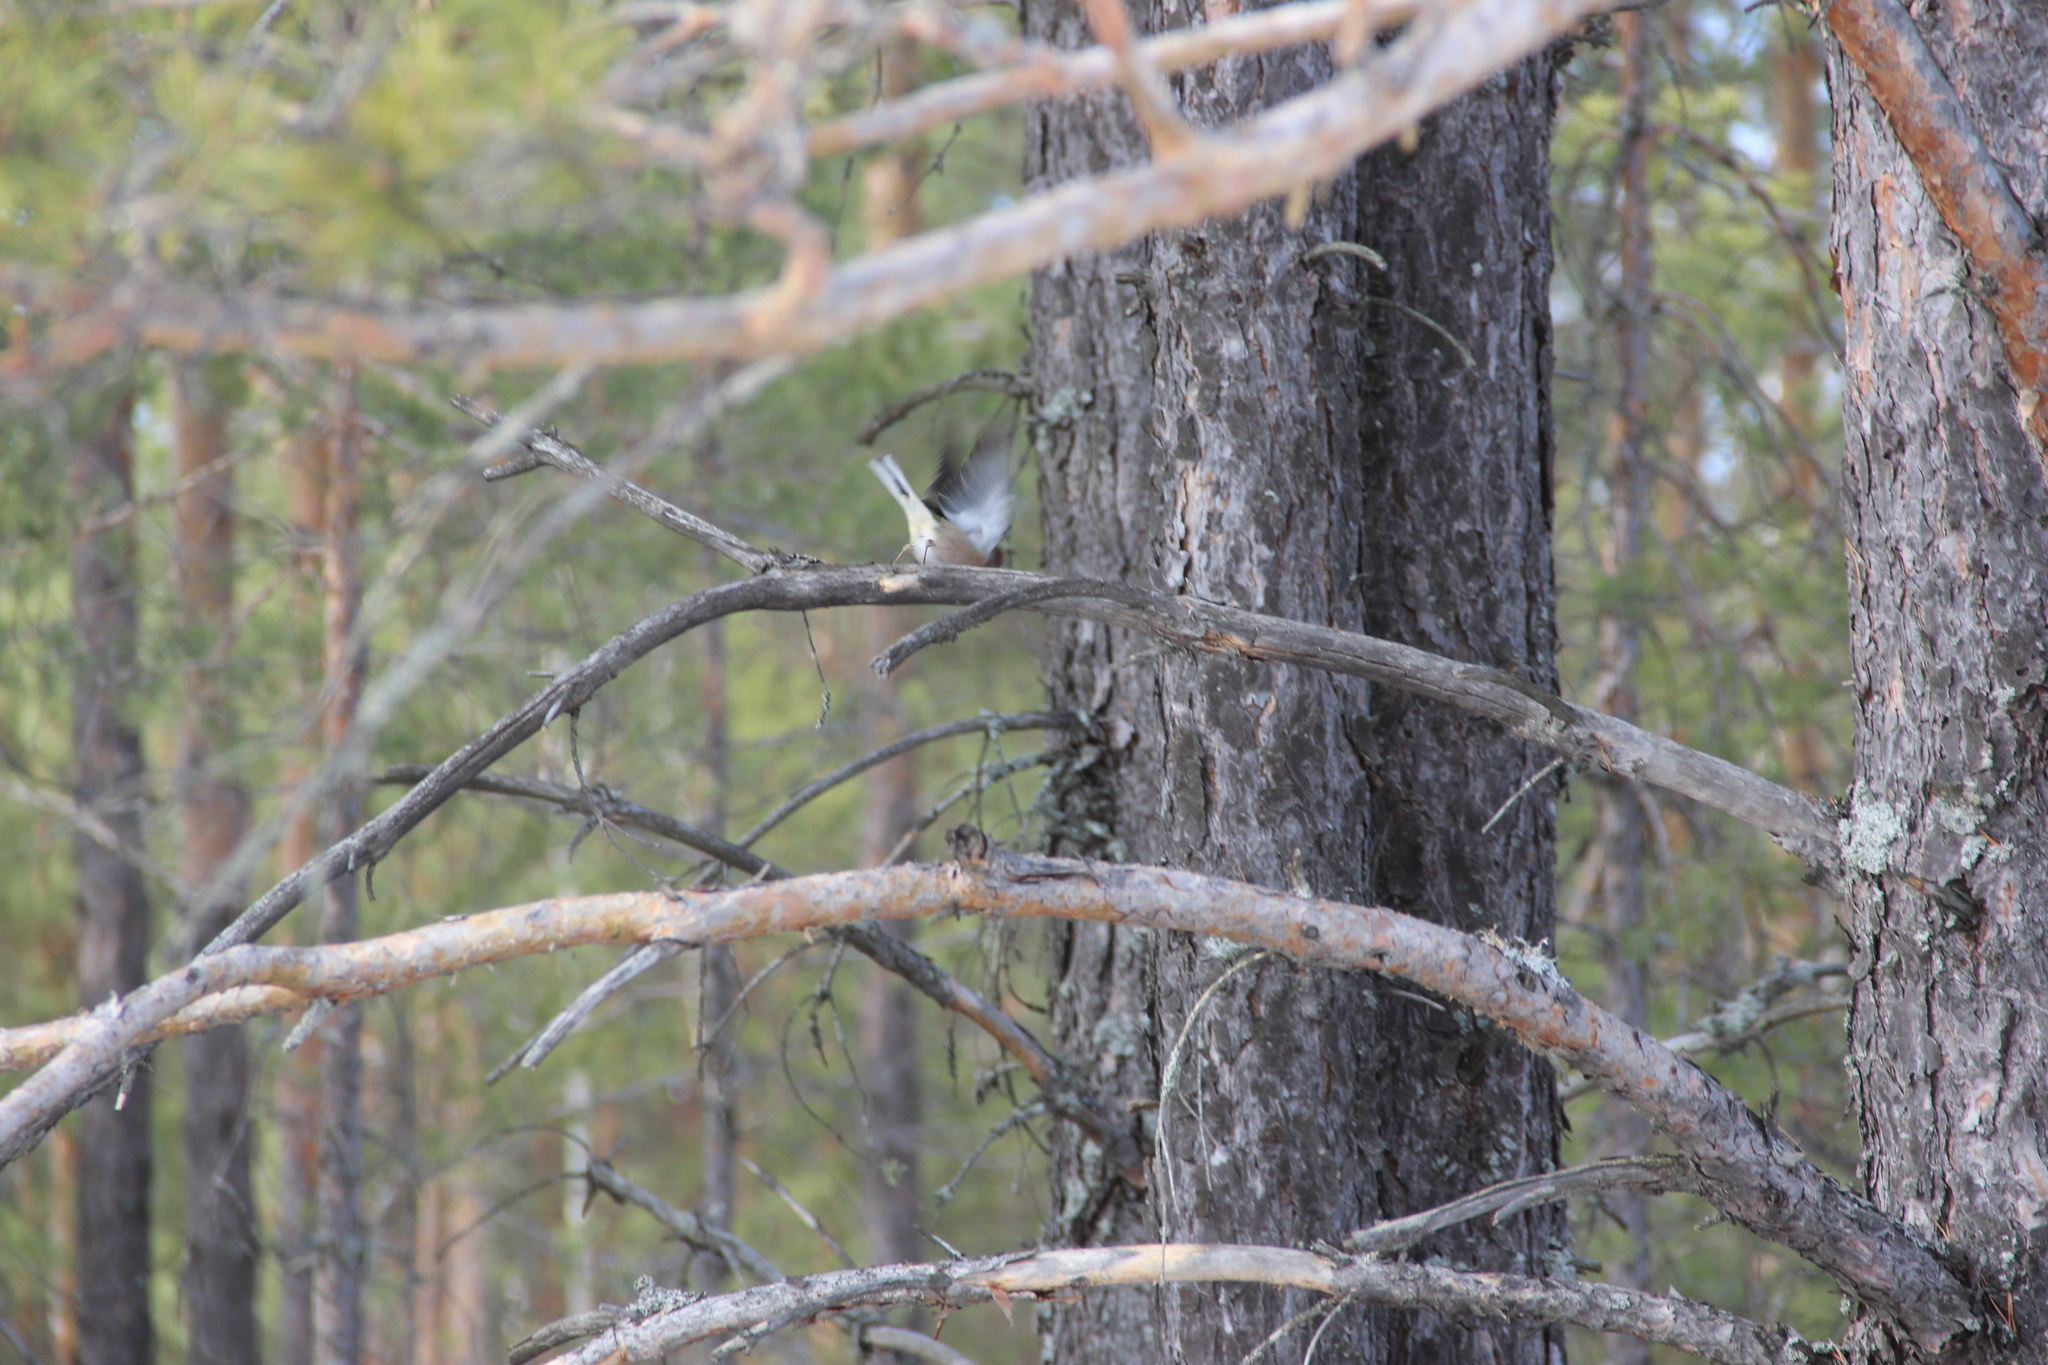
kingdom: Animalia
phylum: Chordata
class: Aves
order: Passeriformes
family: Fringillidae
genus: Fringilla
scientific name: Fringilla coelebs
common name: Common chaffinch
